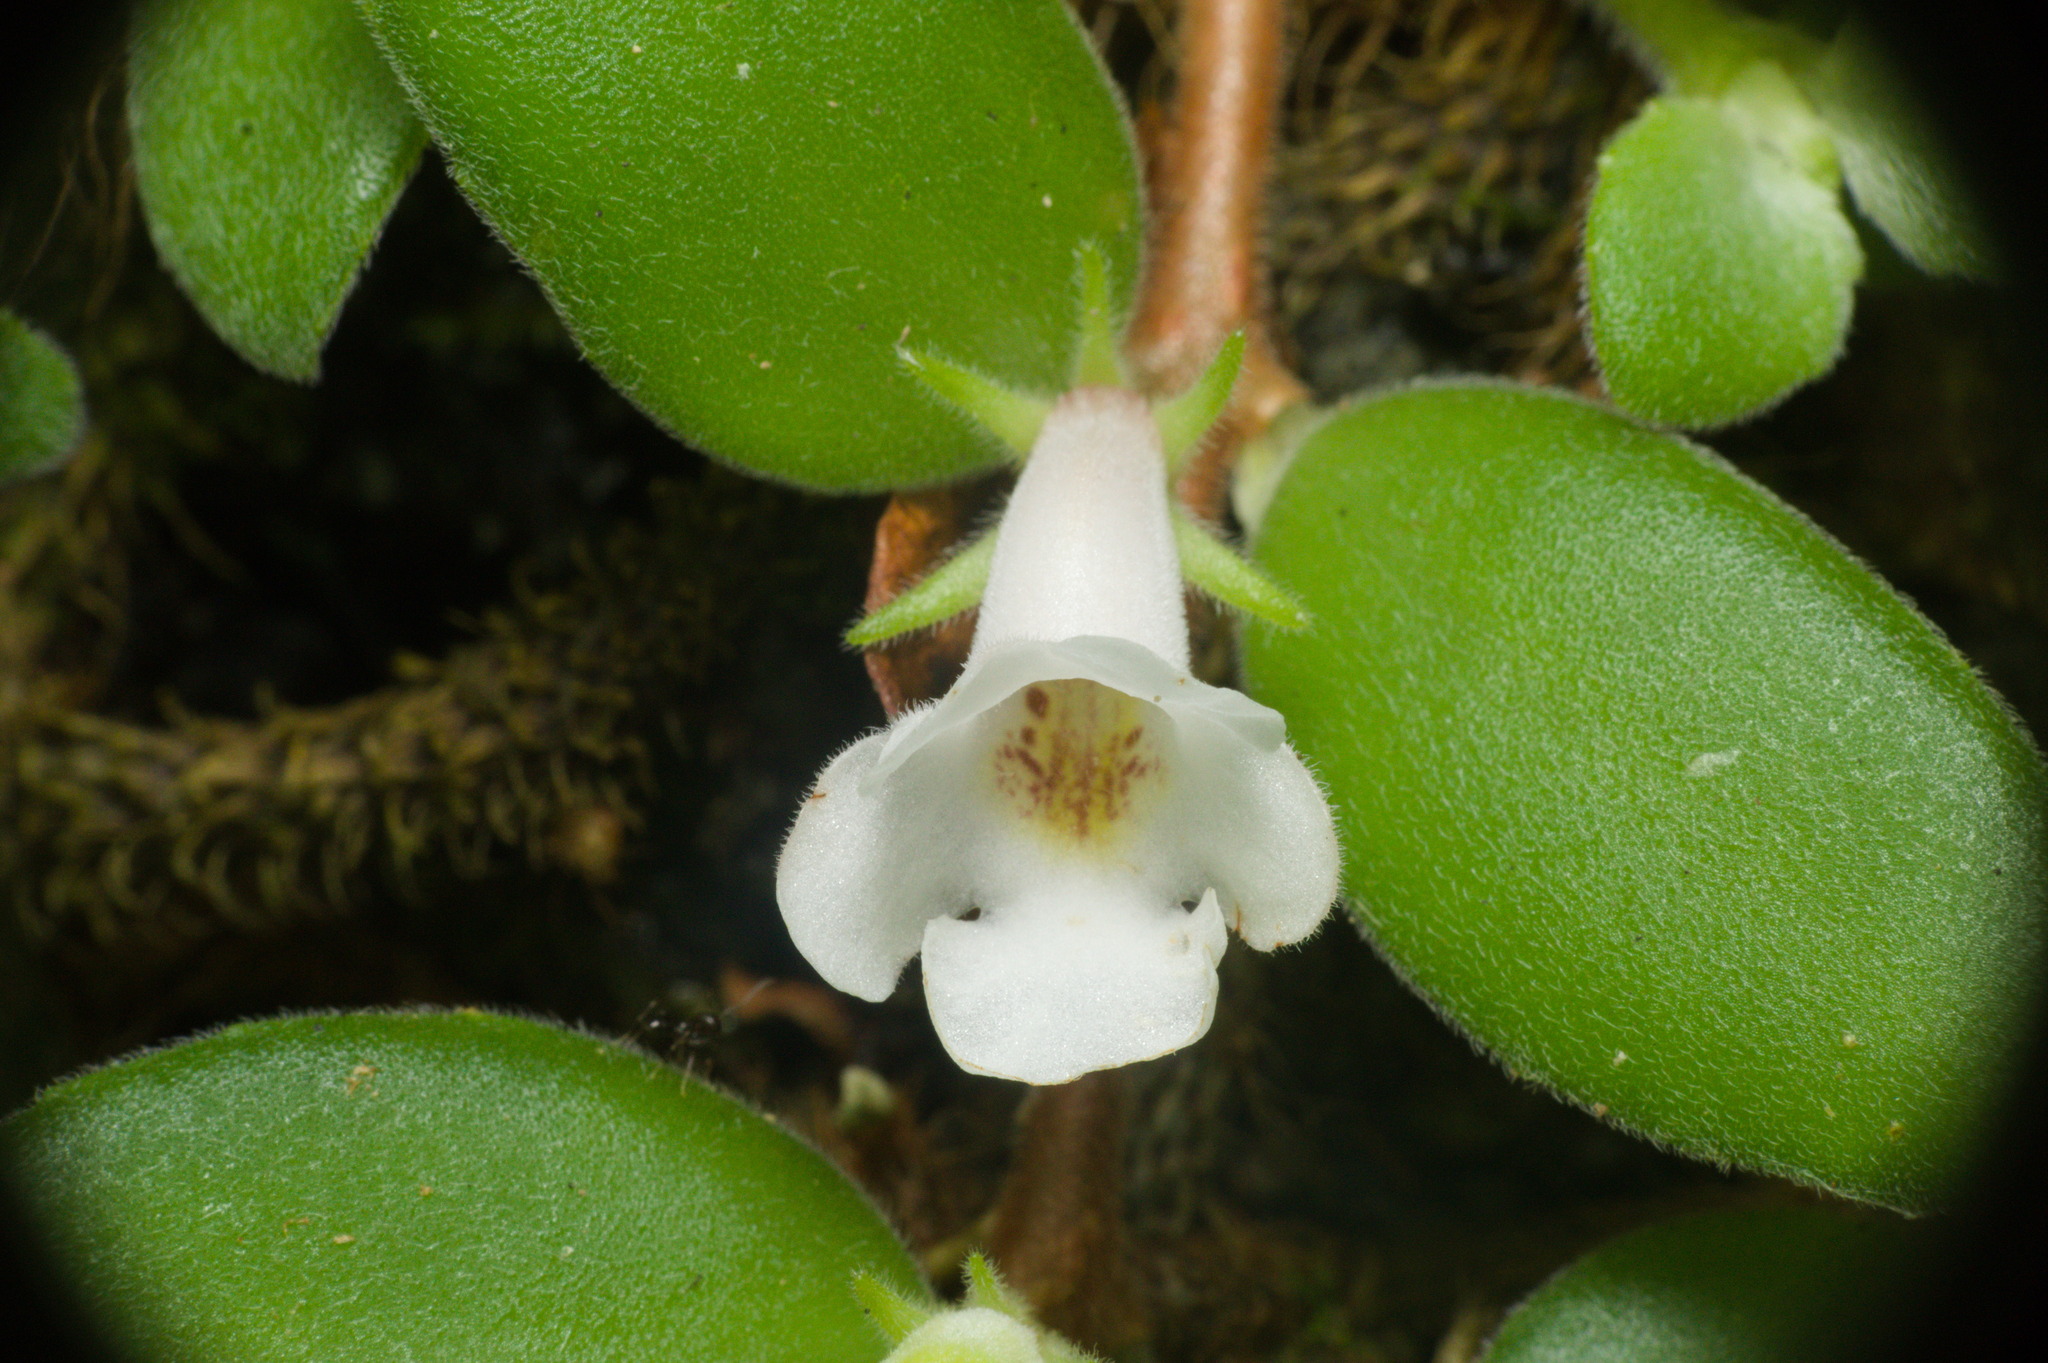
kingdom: Plantae
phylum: Tracheophyta
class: Magnoliopsida
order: Lamiales
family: Gesneriaceae
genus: Codonanthe
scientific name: Codonanthe devosiana
